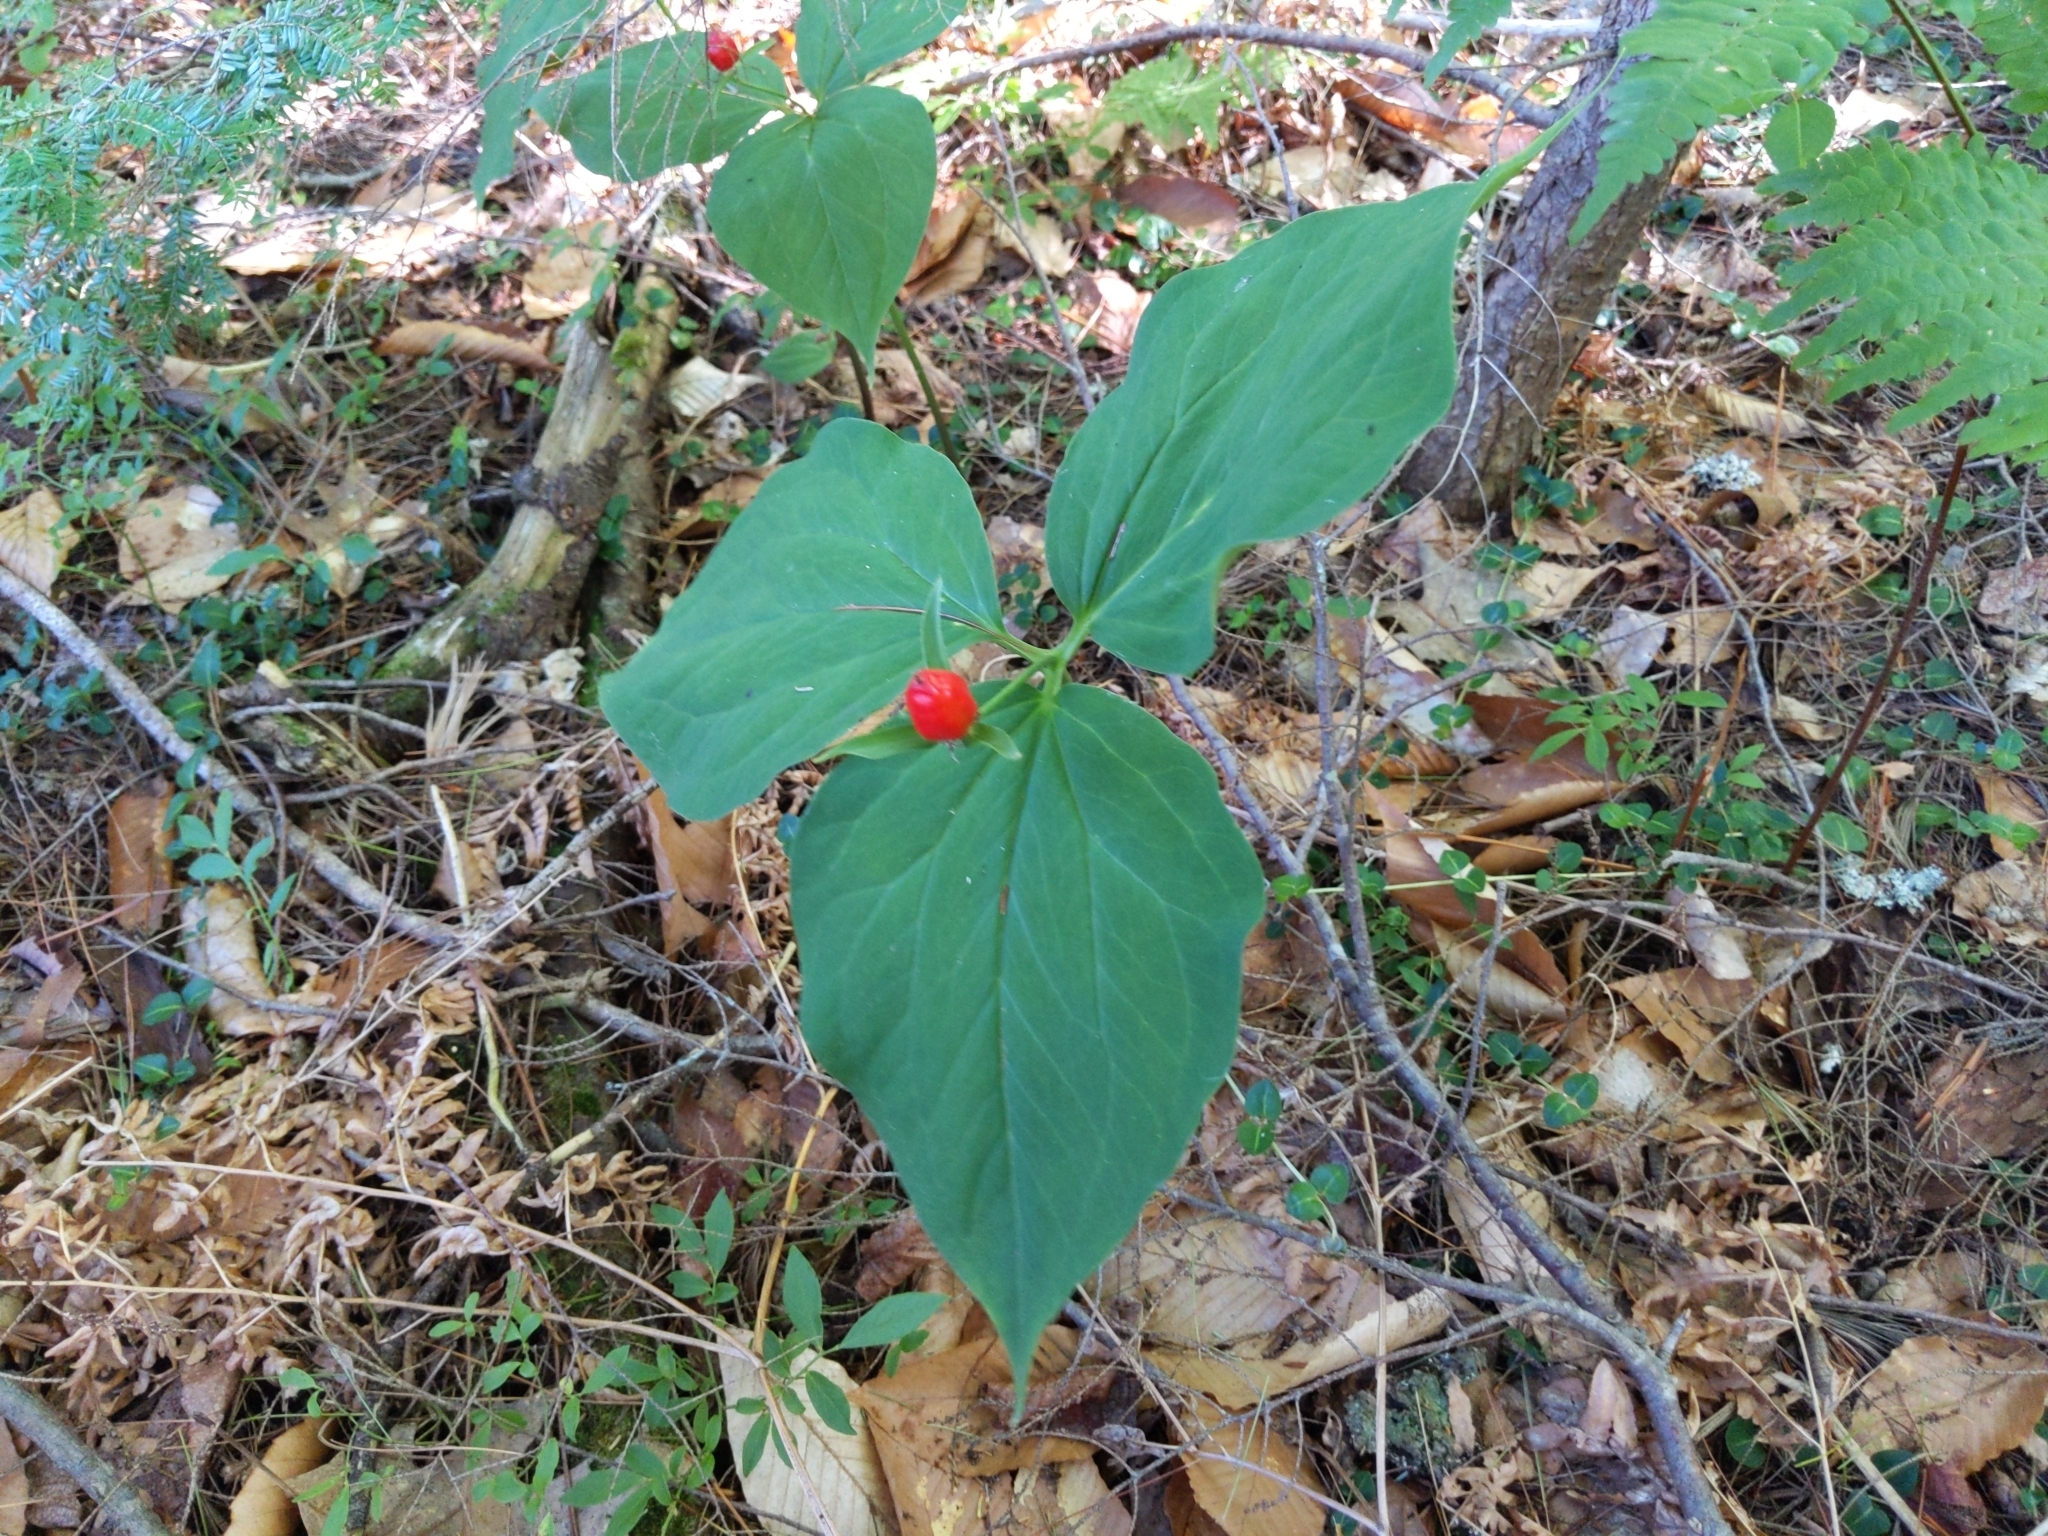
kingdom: Plantae
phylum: Tracheophyta
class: Liliopsida
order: Liliales
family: Melanthiaceae
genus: Trillium
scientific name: Trillium undulatum
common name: Paint trillium
